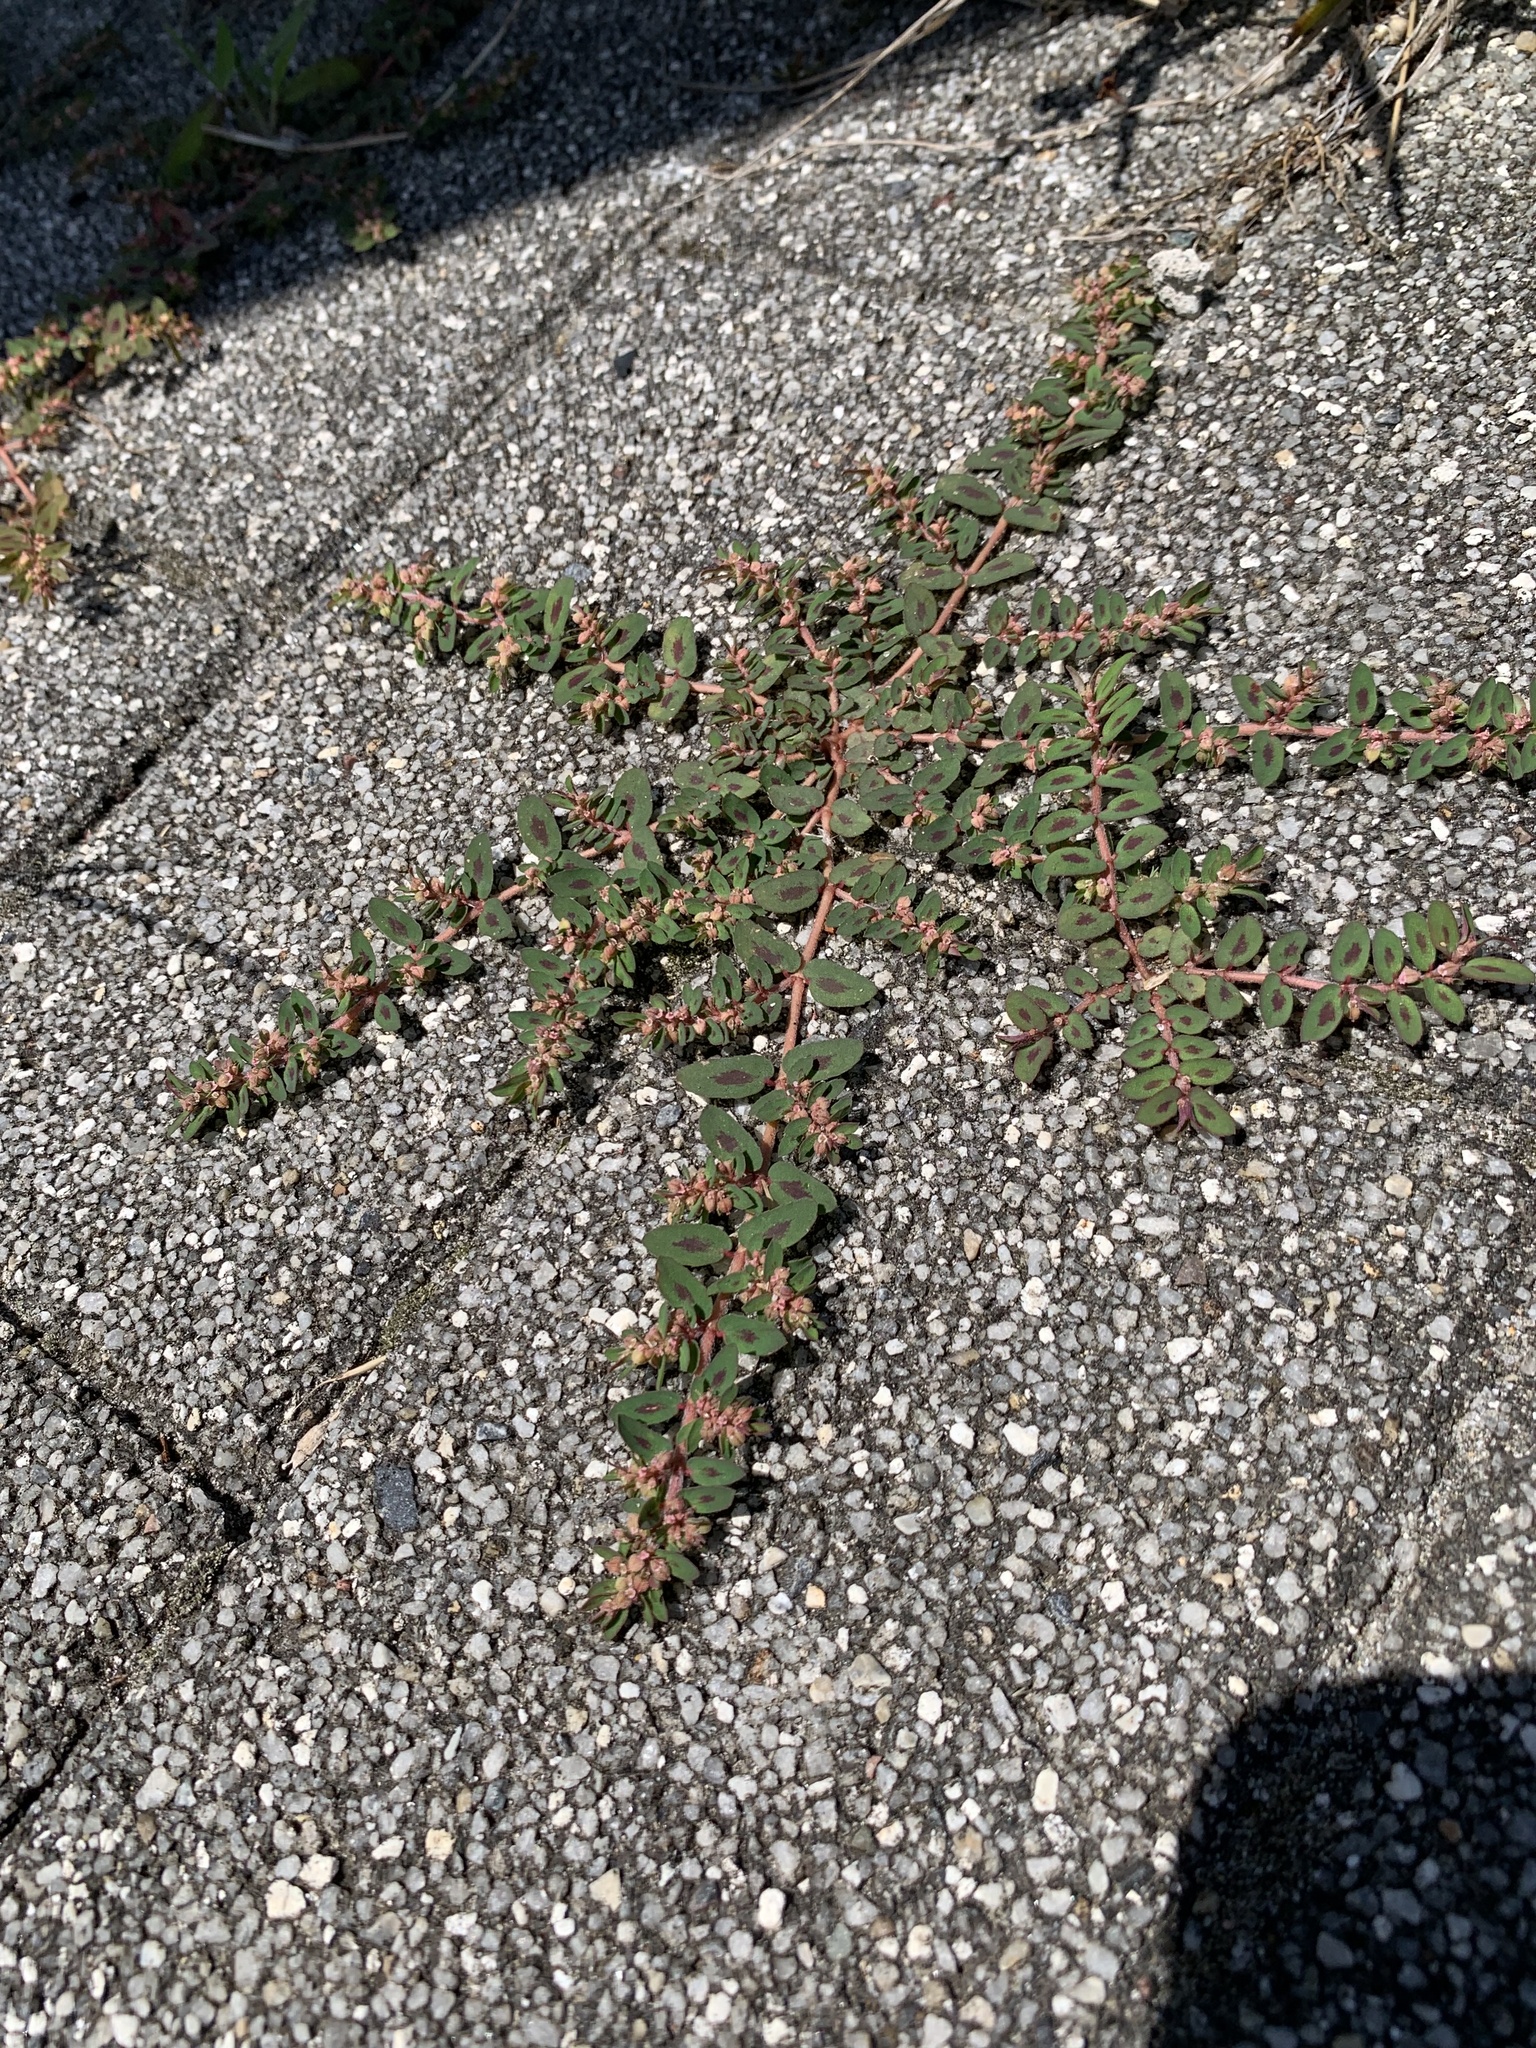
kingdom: Plantae
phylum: Tracheophyta
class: Magnoliopsida
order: Malpighiales
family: Euphorbiaceae
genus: Euphorbia
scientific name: Euphorbia maculata
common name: Spotted spurge
